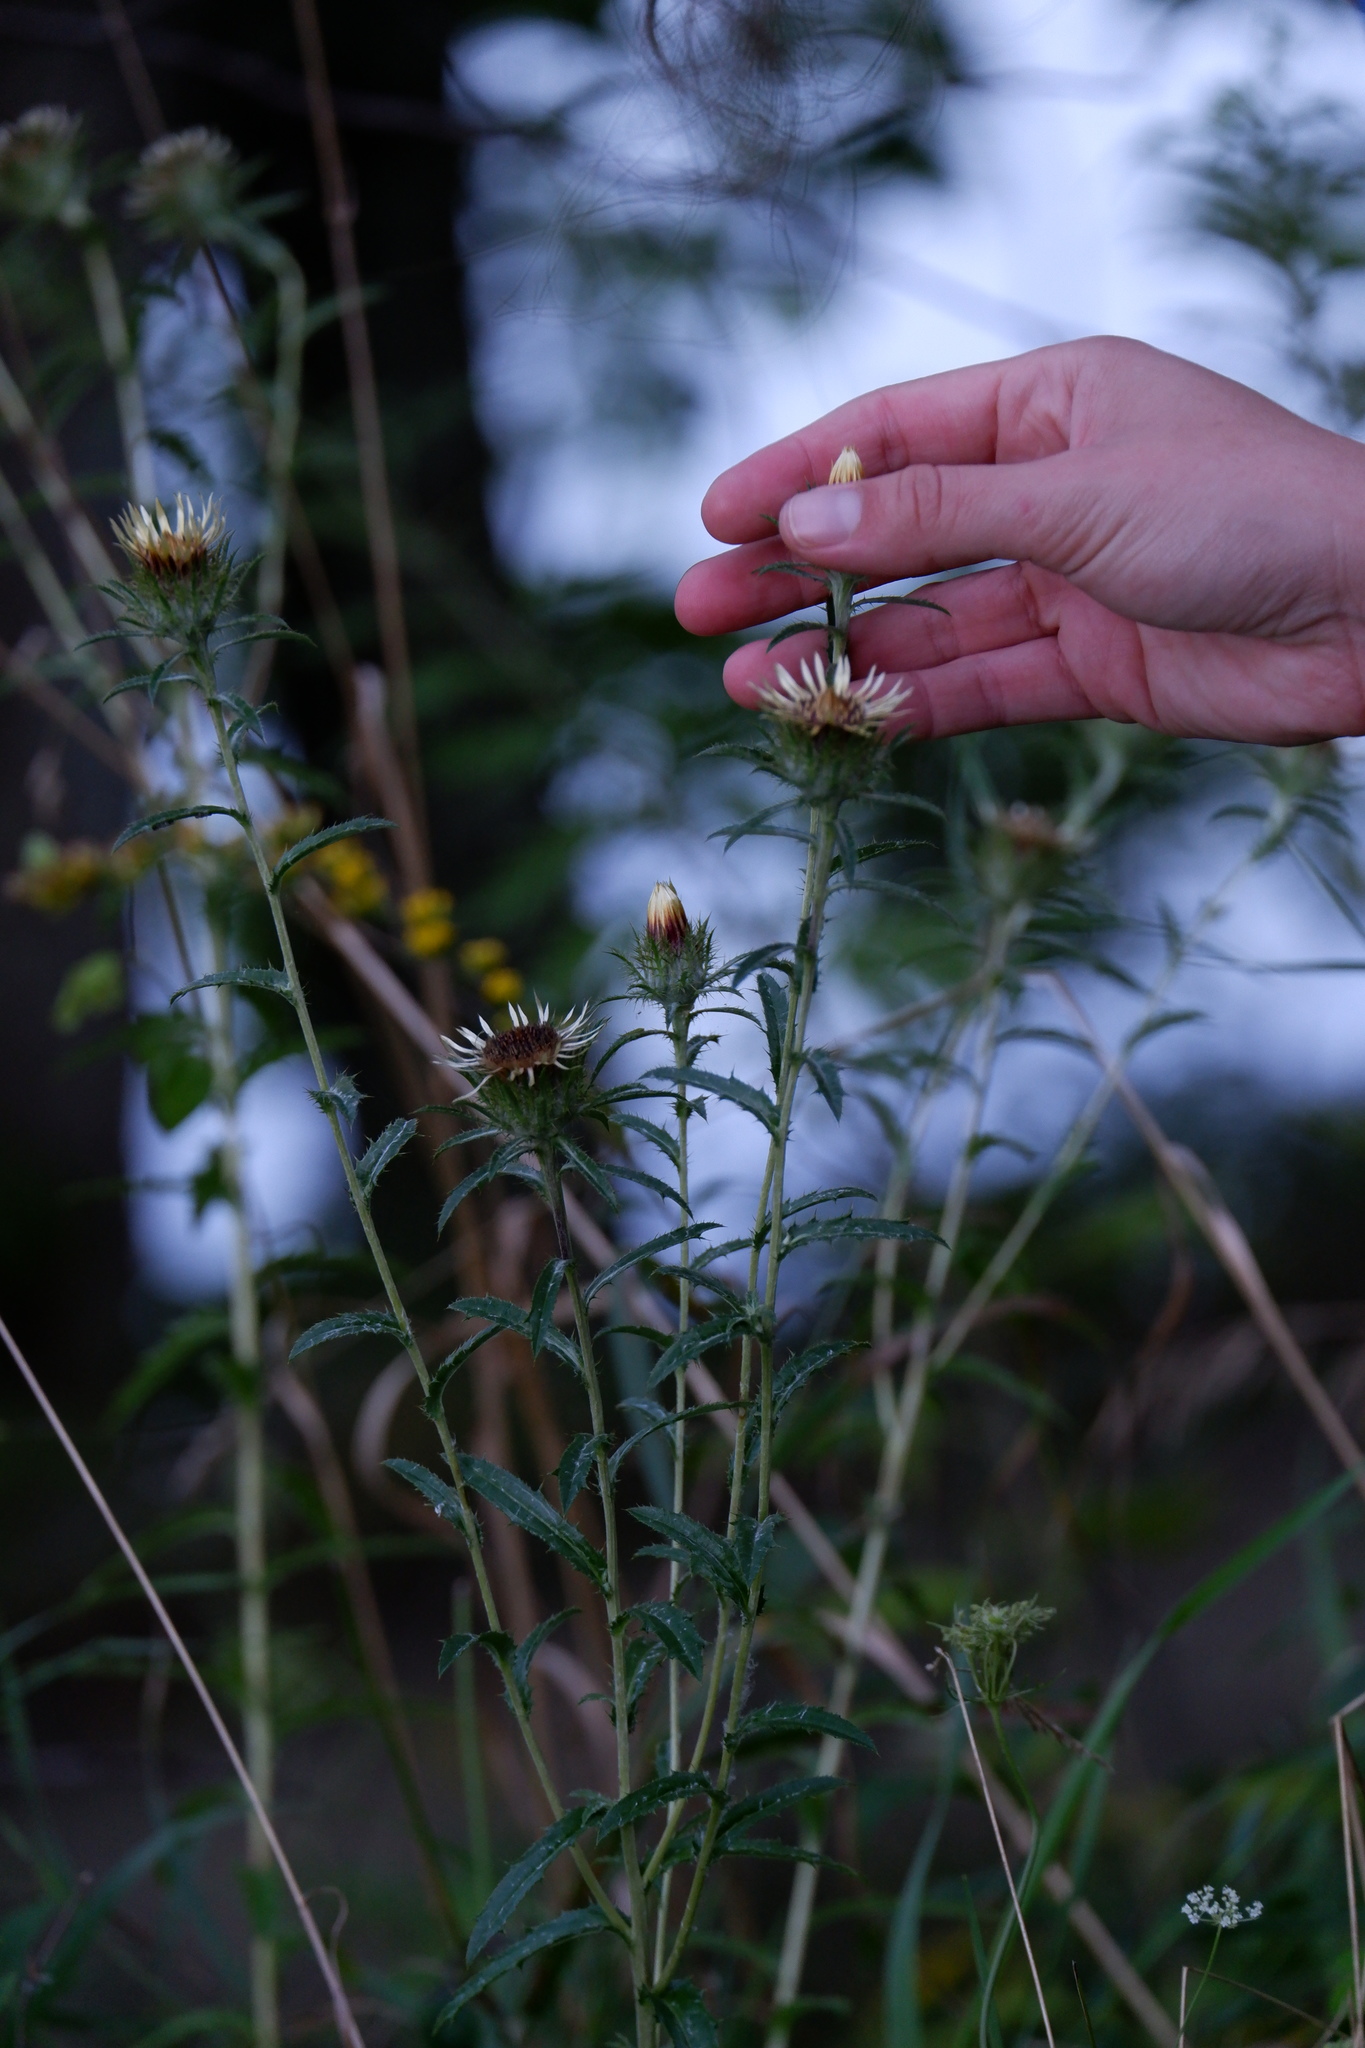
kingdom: Plantae
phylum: Tracheophyta
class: Magnoliopsida
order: Asterales
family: Asteraceae
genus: Carlina
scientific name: Carlina vulgaris
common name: Carline thistle
